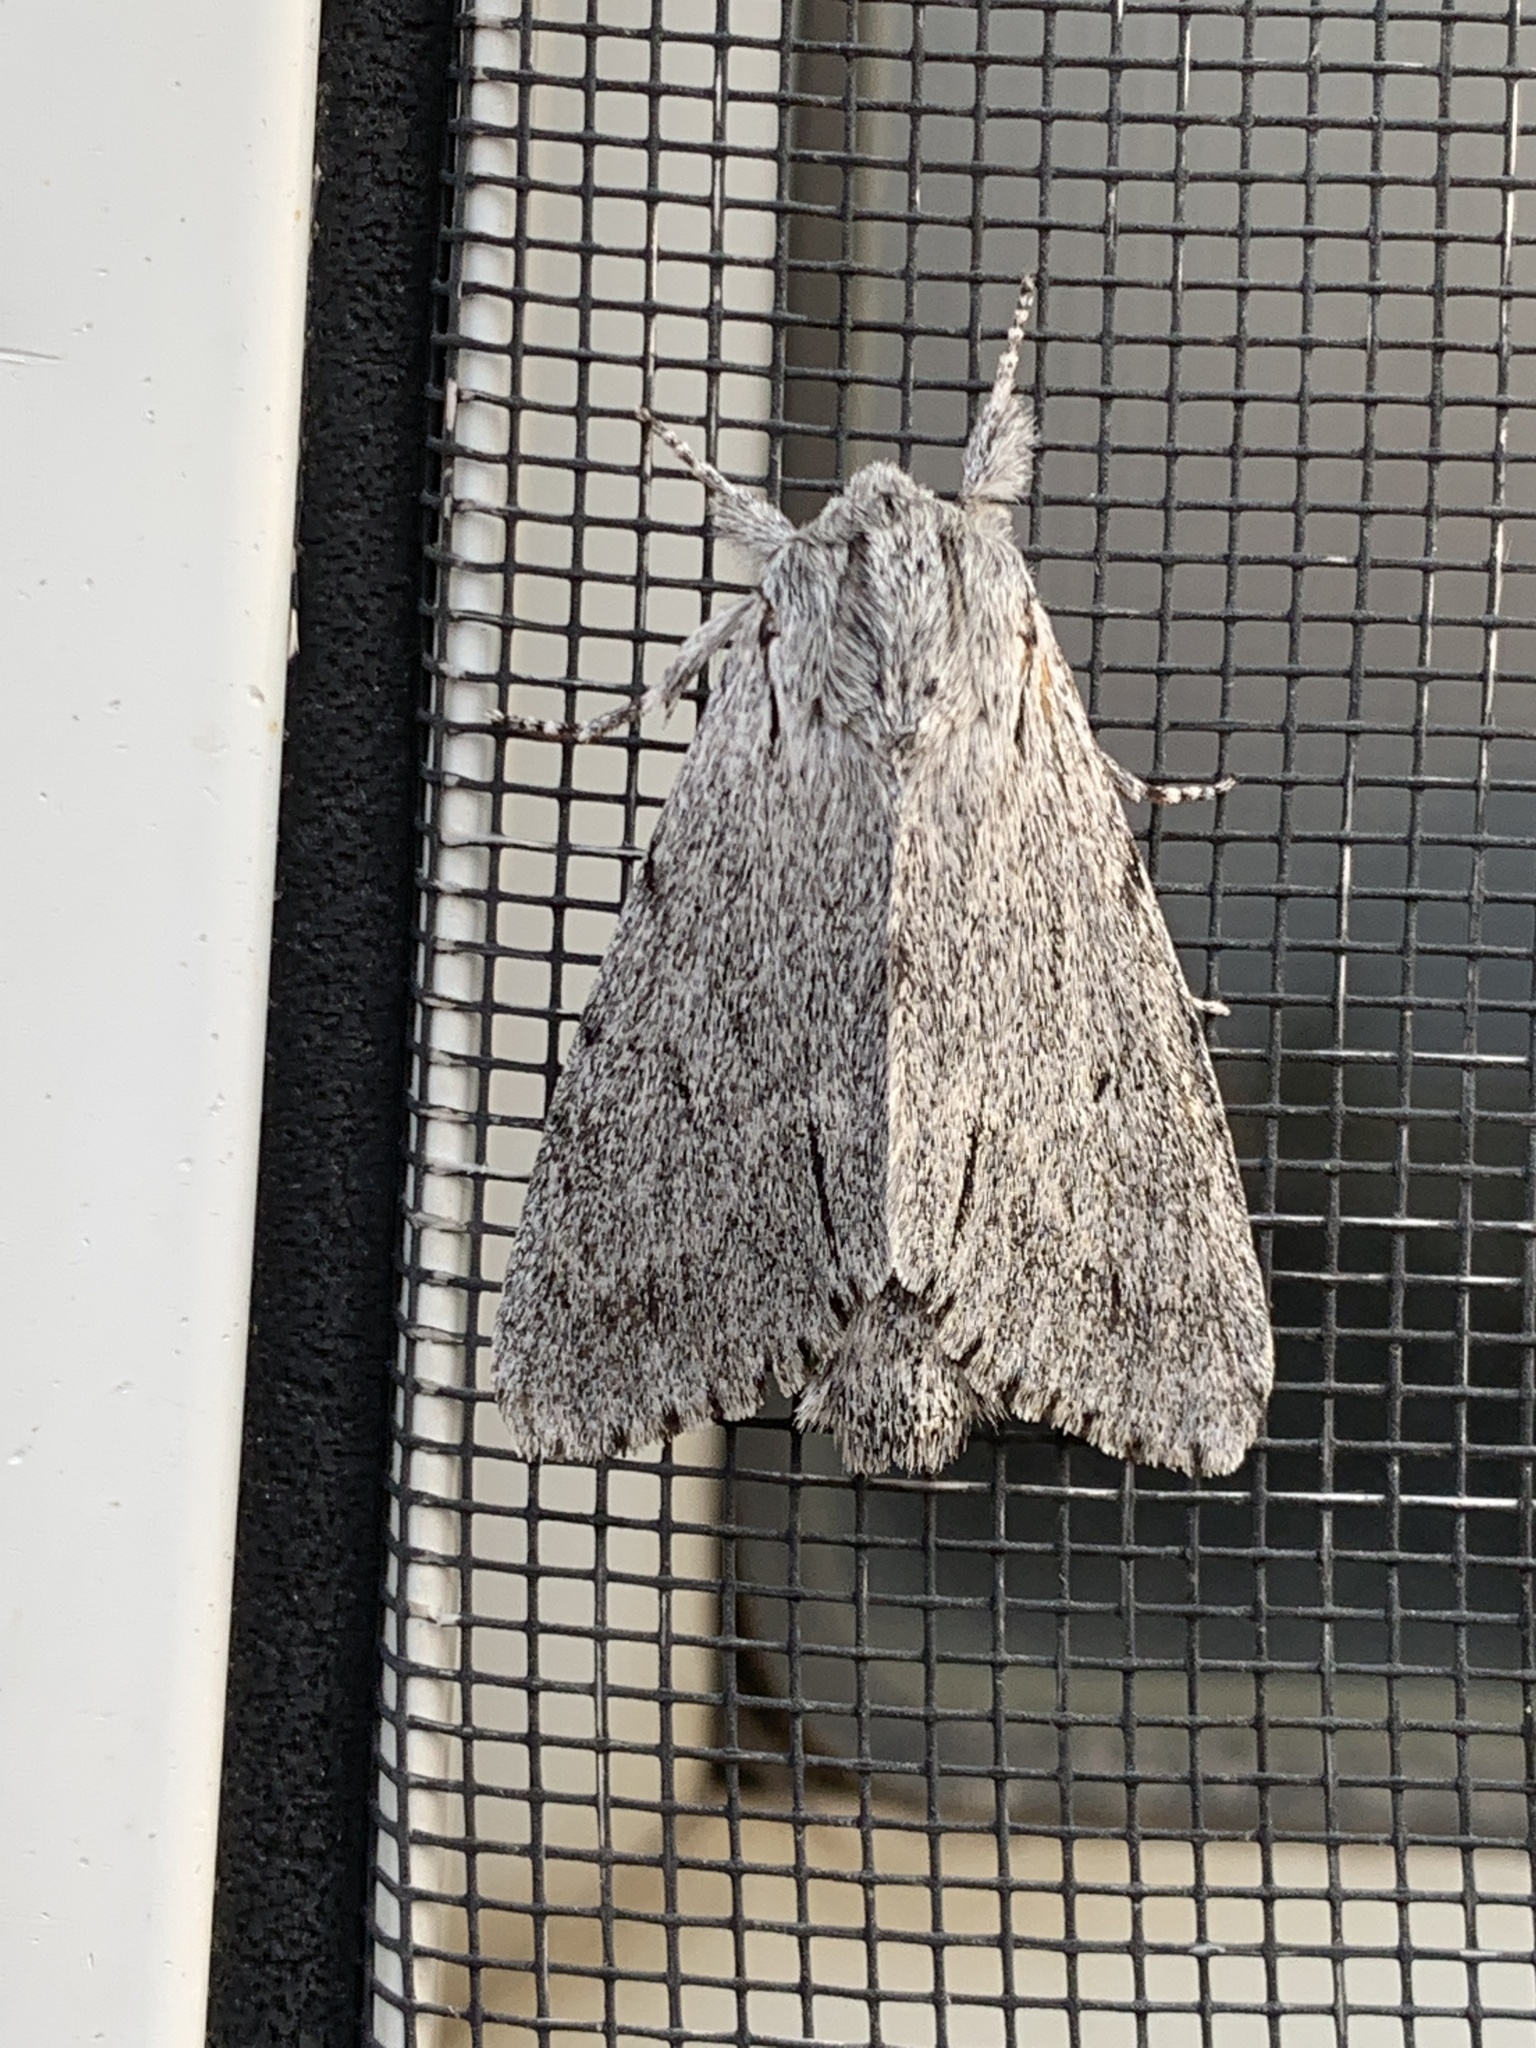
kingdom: Animalia
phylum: Arthropoda
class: Insecta
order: Lepidoptera
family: Noctuidae
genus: Acronicta
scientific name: Acronicta cyanescens
